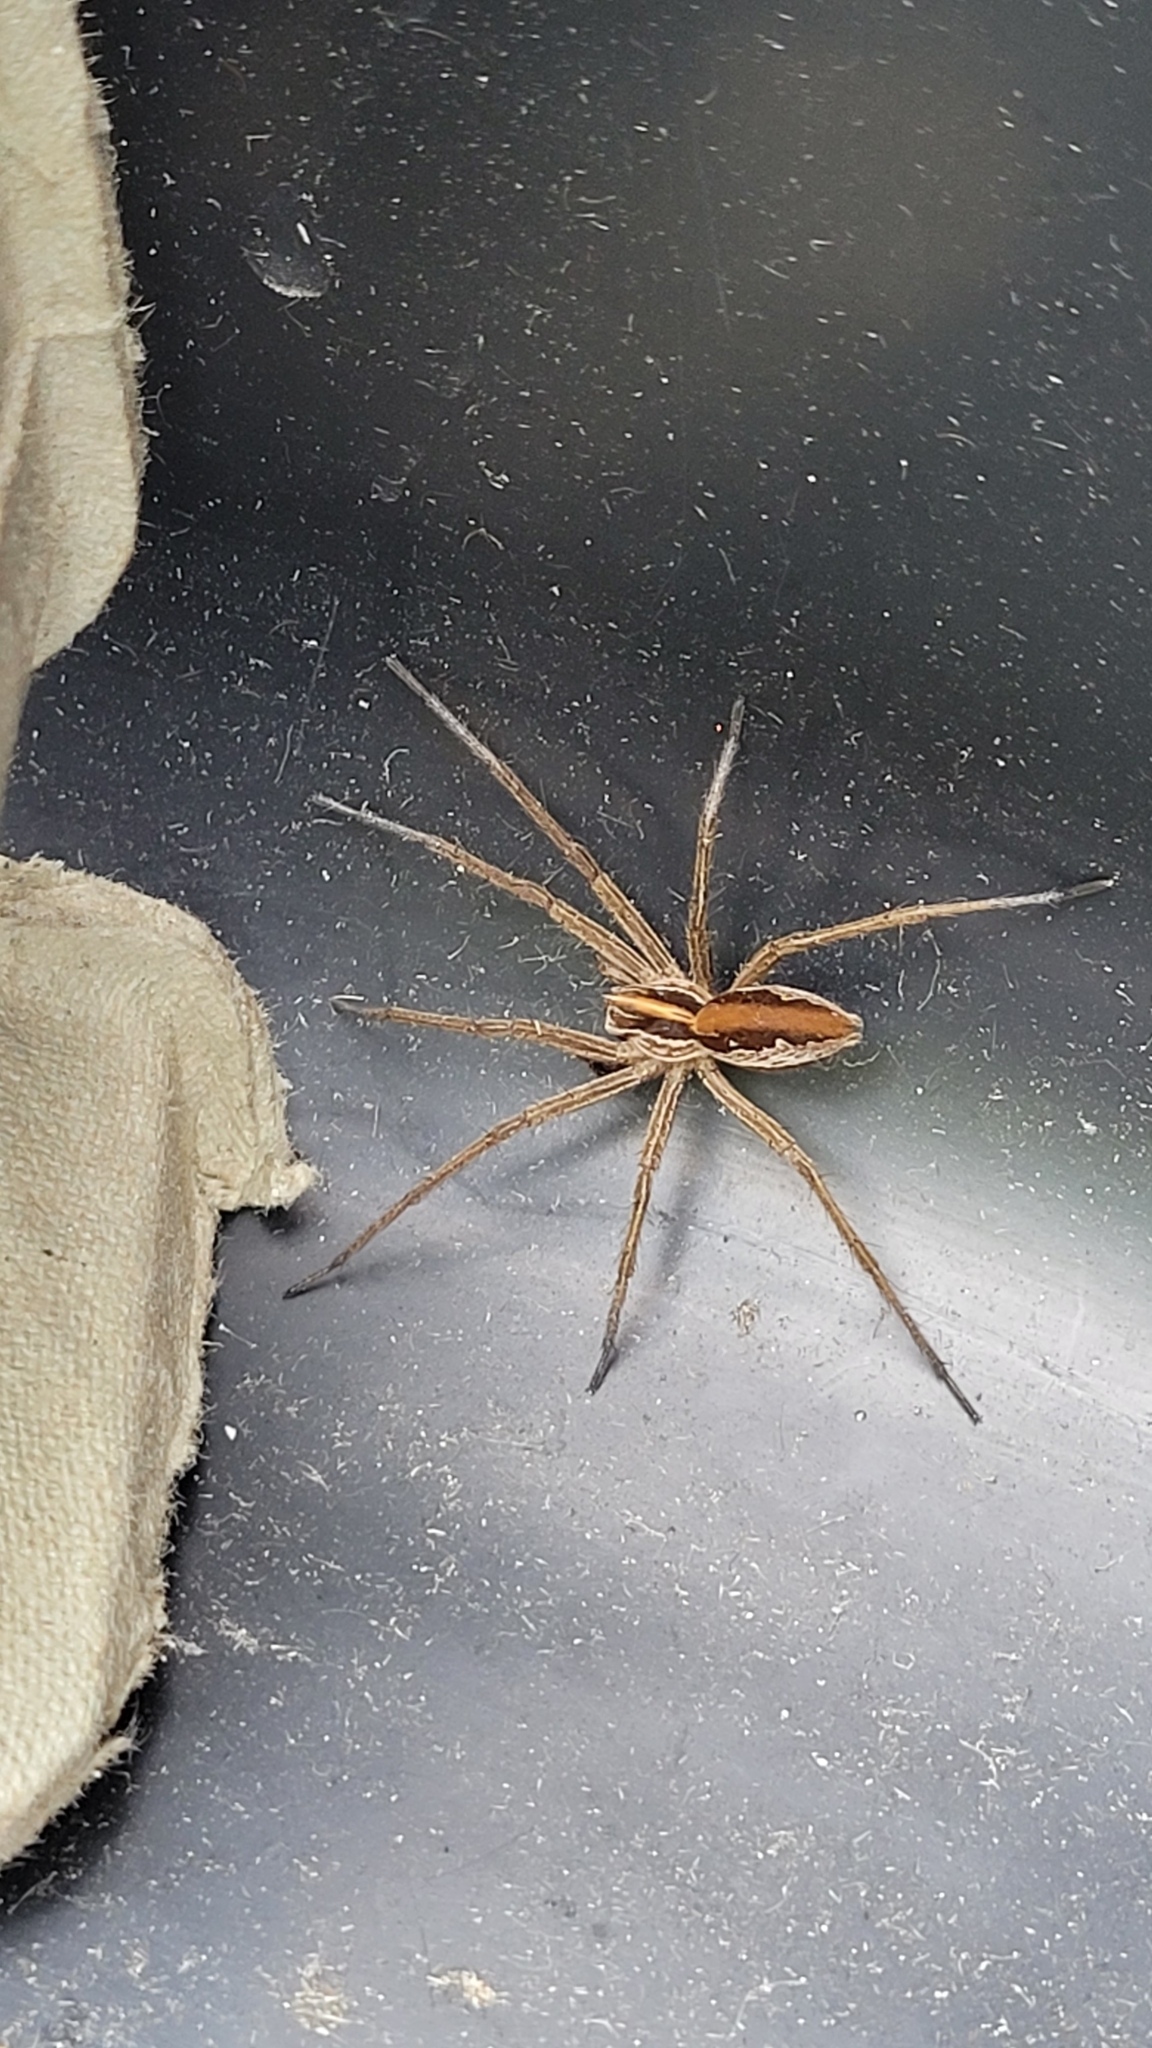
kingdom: Animalia
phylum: Arthropoda
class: Arachnida
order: Araneae
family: Pisauridae
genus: Pisaura
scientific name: Pisaura mirabilis
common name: Tent spider
